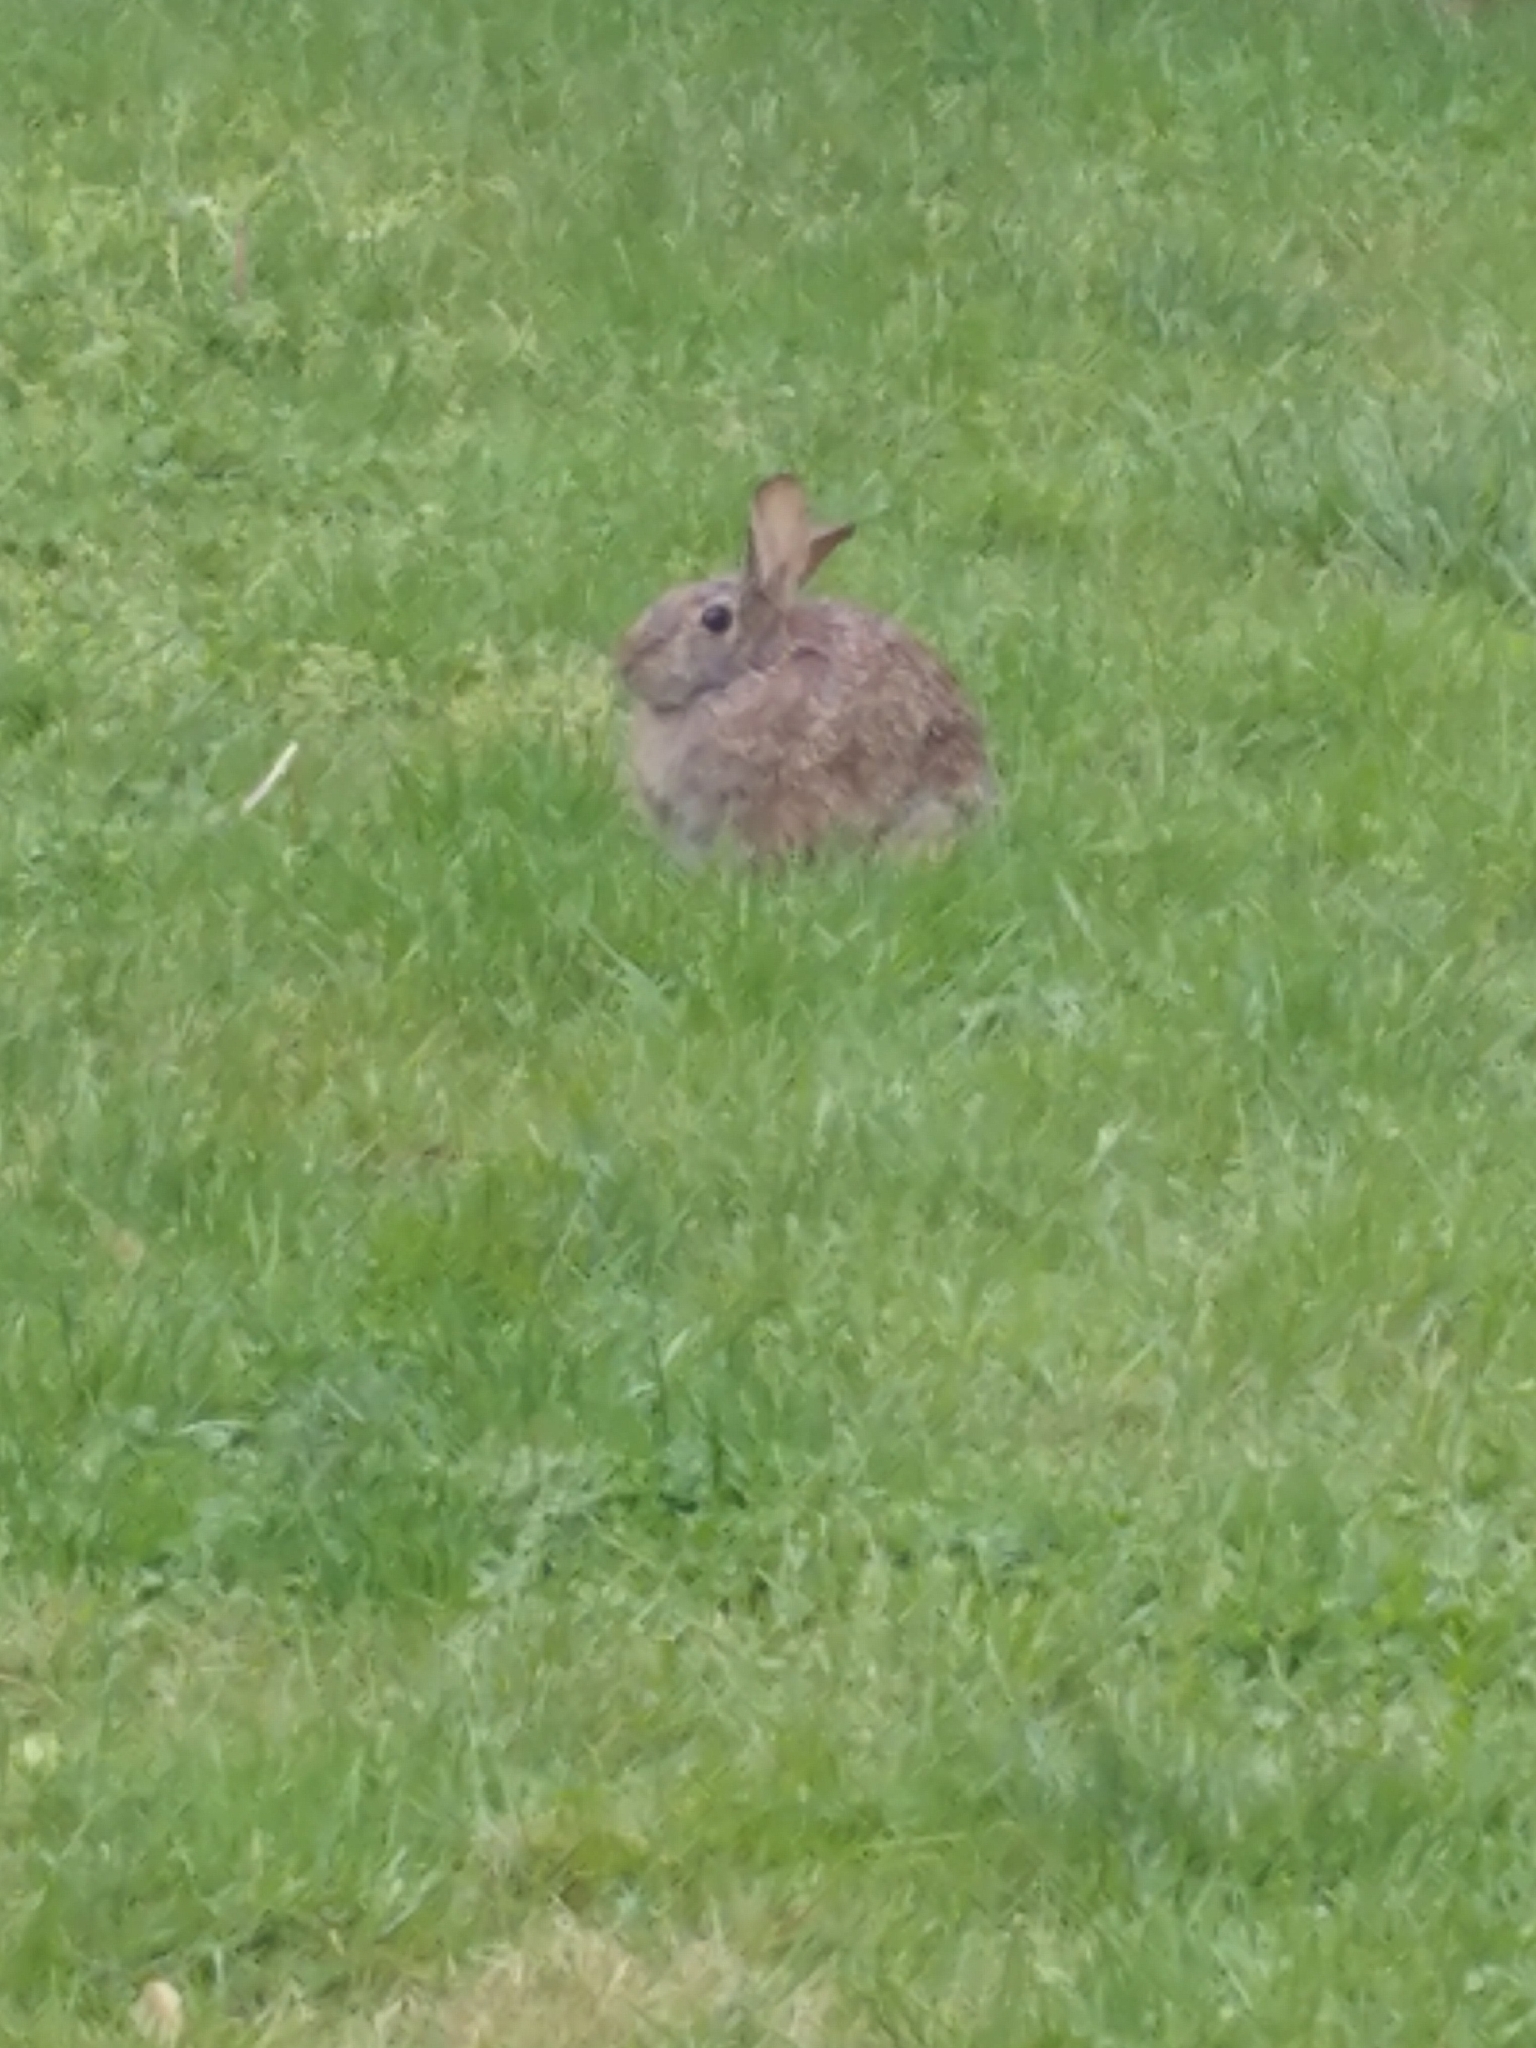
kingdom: Animalia
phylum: Chordata
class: Mammalia
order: Lagomorpha
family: Leporidae
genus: Sylvilagus
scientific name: Sylvilagus floridanus
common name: Eastern cottontail
